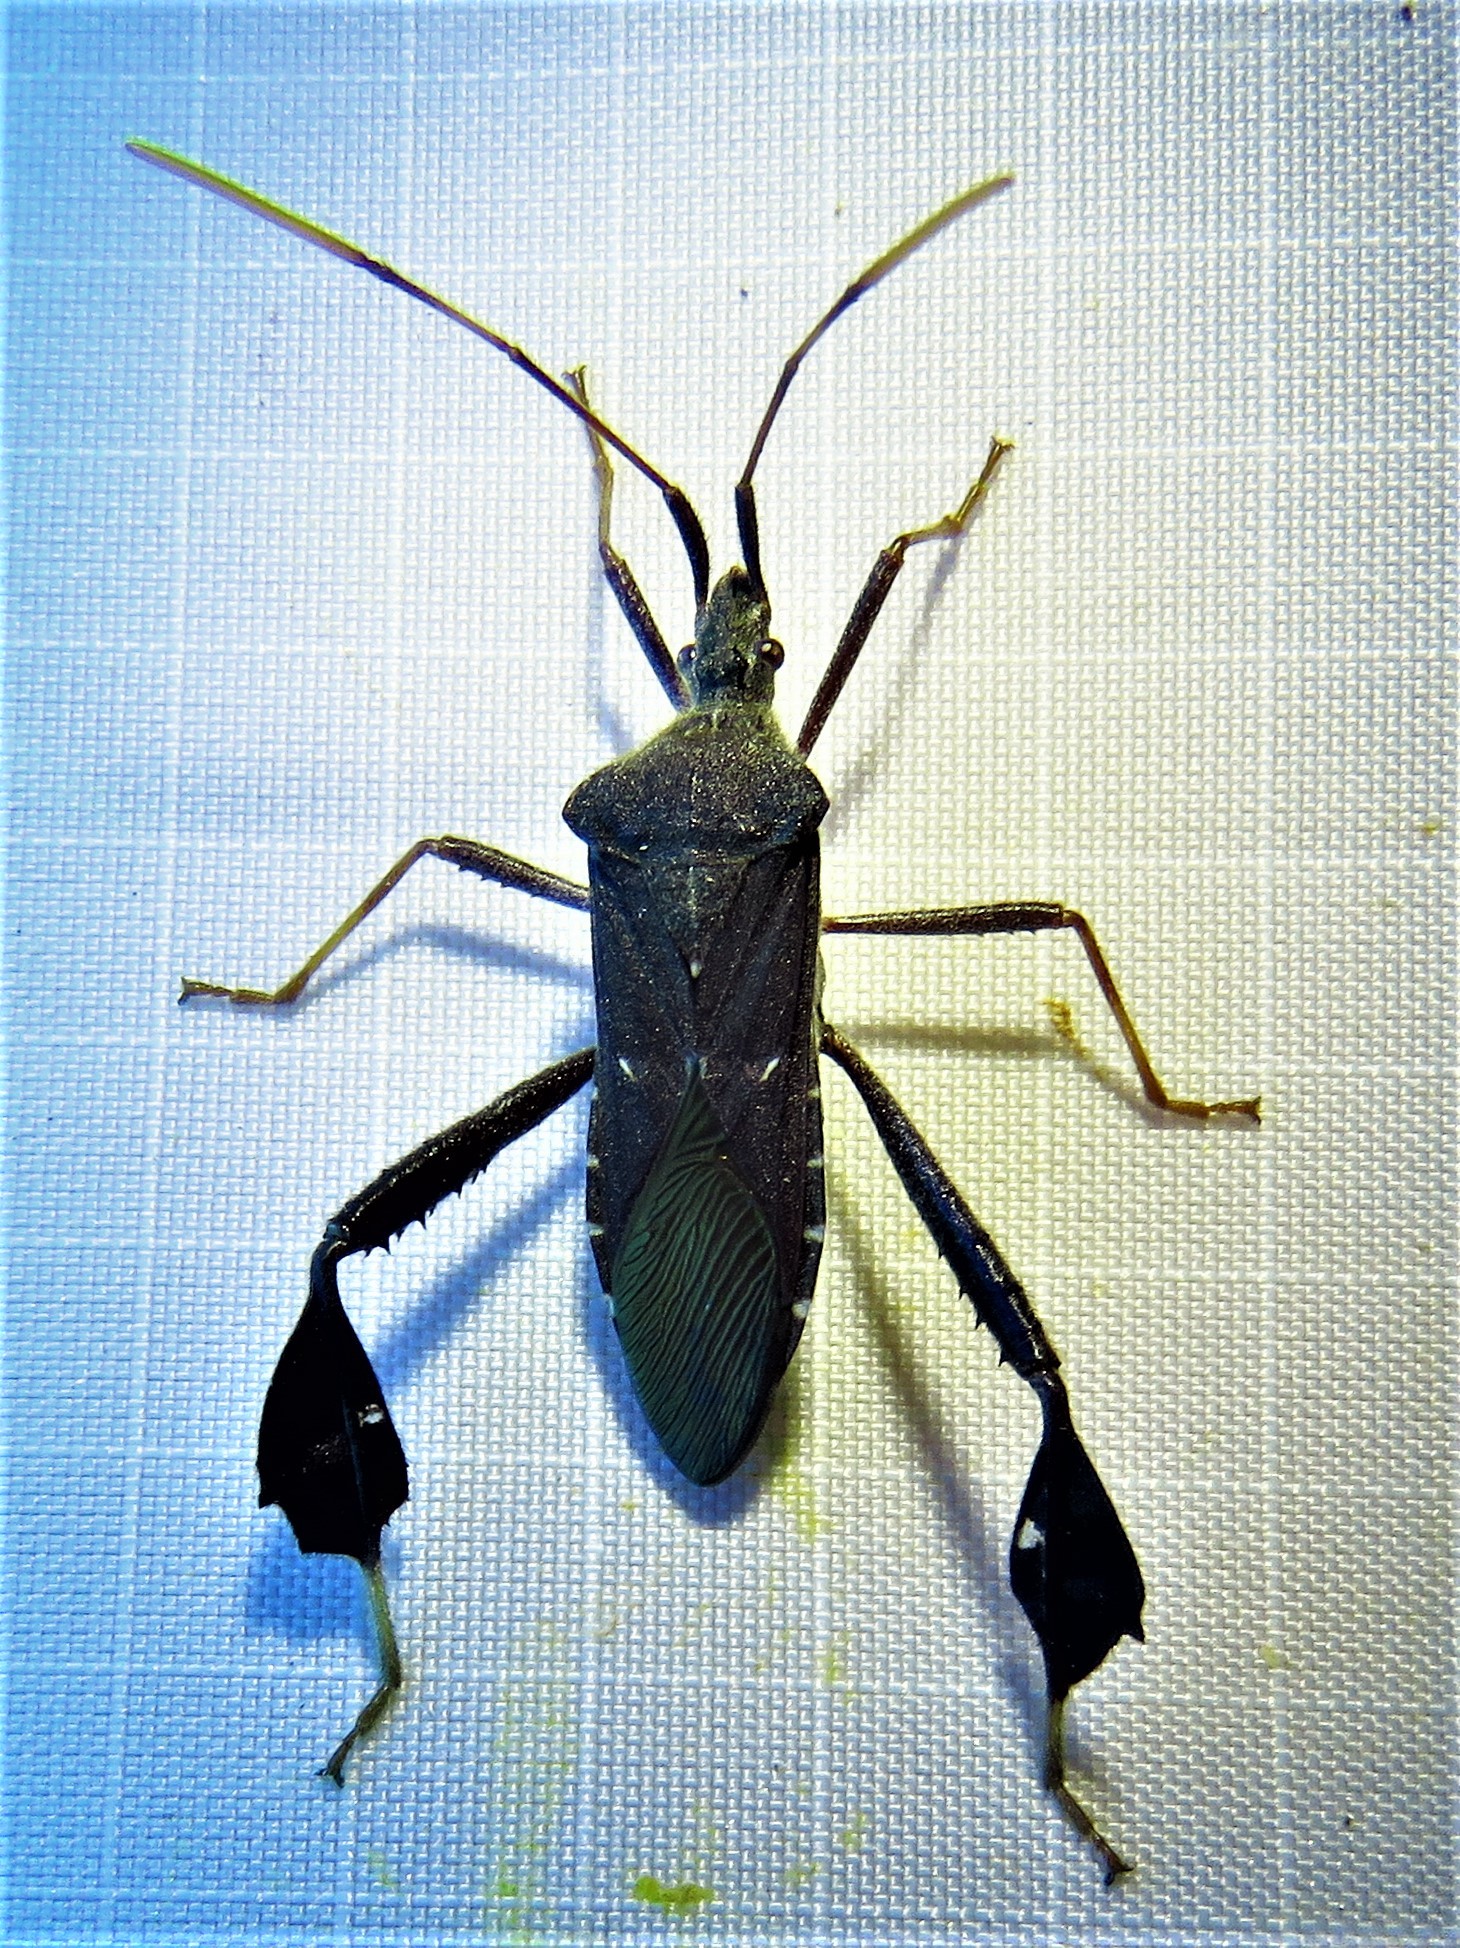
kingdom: Animalia
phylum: Arthropoda
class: Insecta
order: Hemiptera
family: Coreidae
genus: Leptoglossus
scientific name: Leptoglossus oppositus
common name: Northern leaf-footed bug
